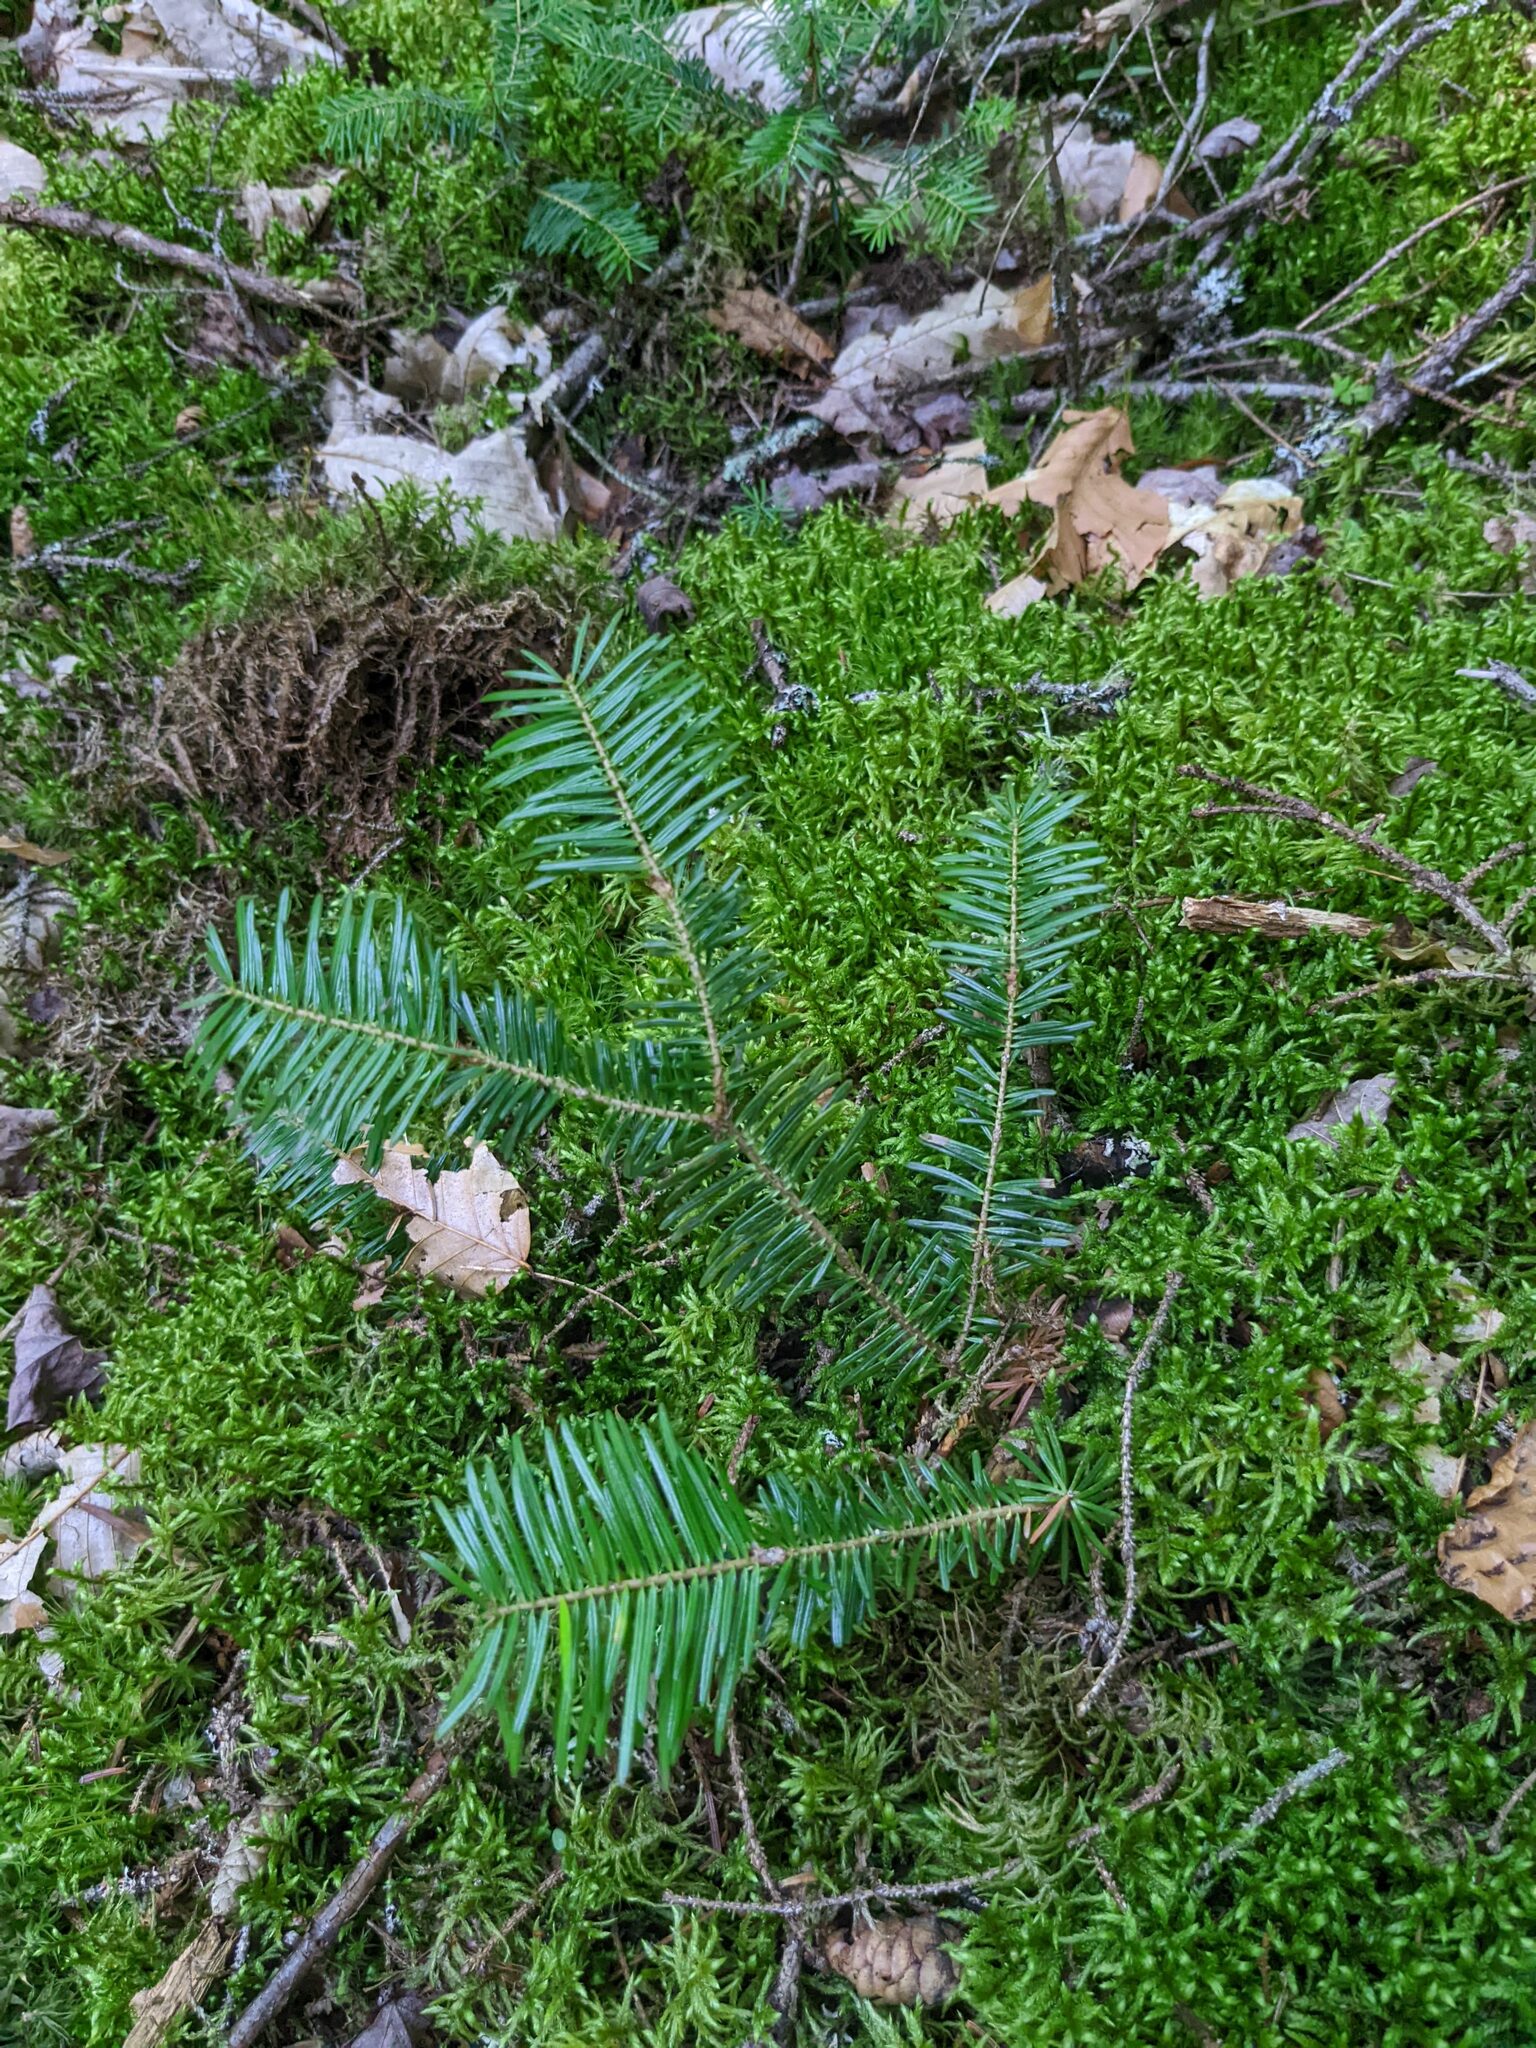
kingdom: Plantae
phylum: Tracheophyta
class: Pinopsida
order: Pinales
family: Pinaceae
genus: Abies
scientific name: Abies balsamea
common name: Balsam fir
